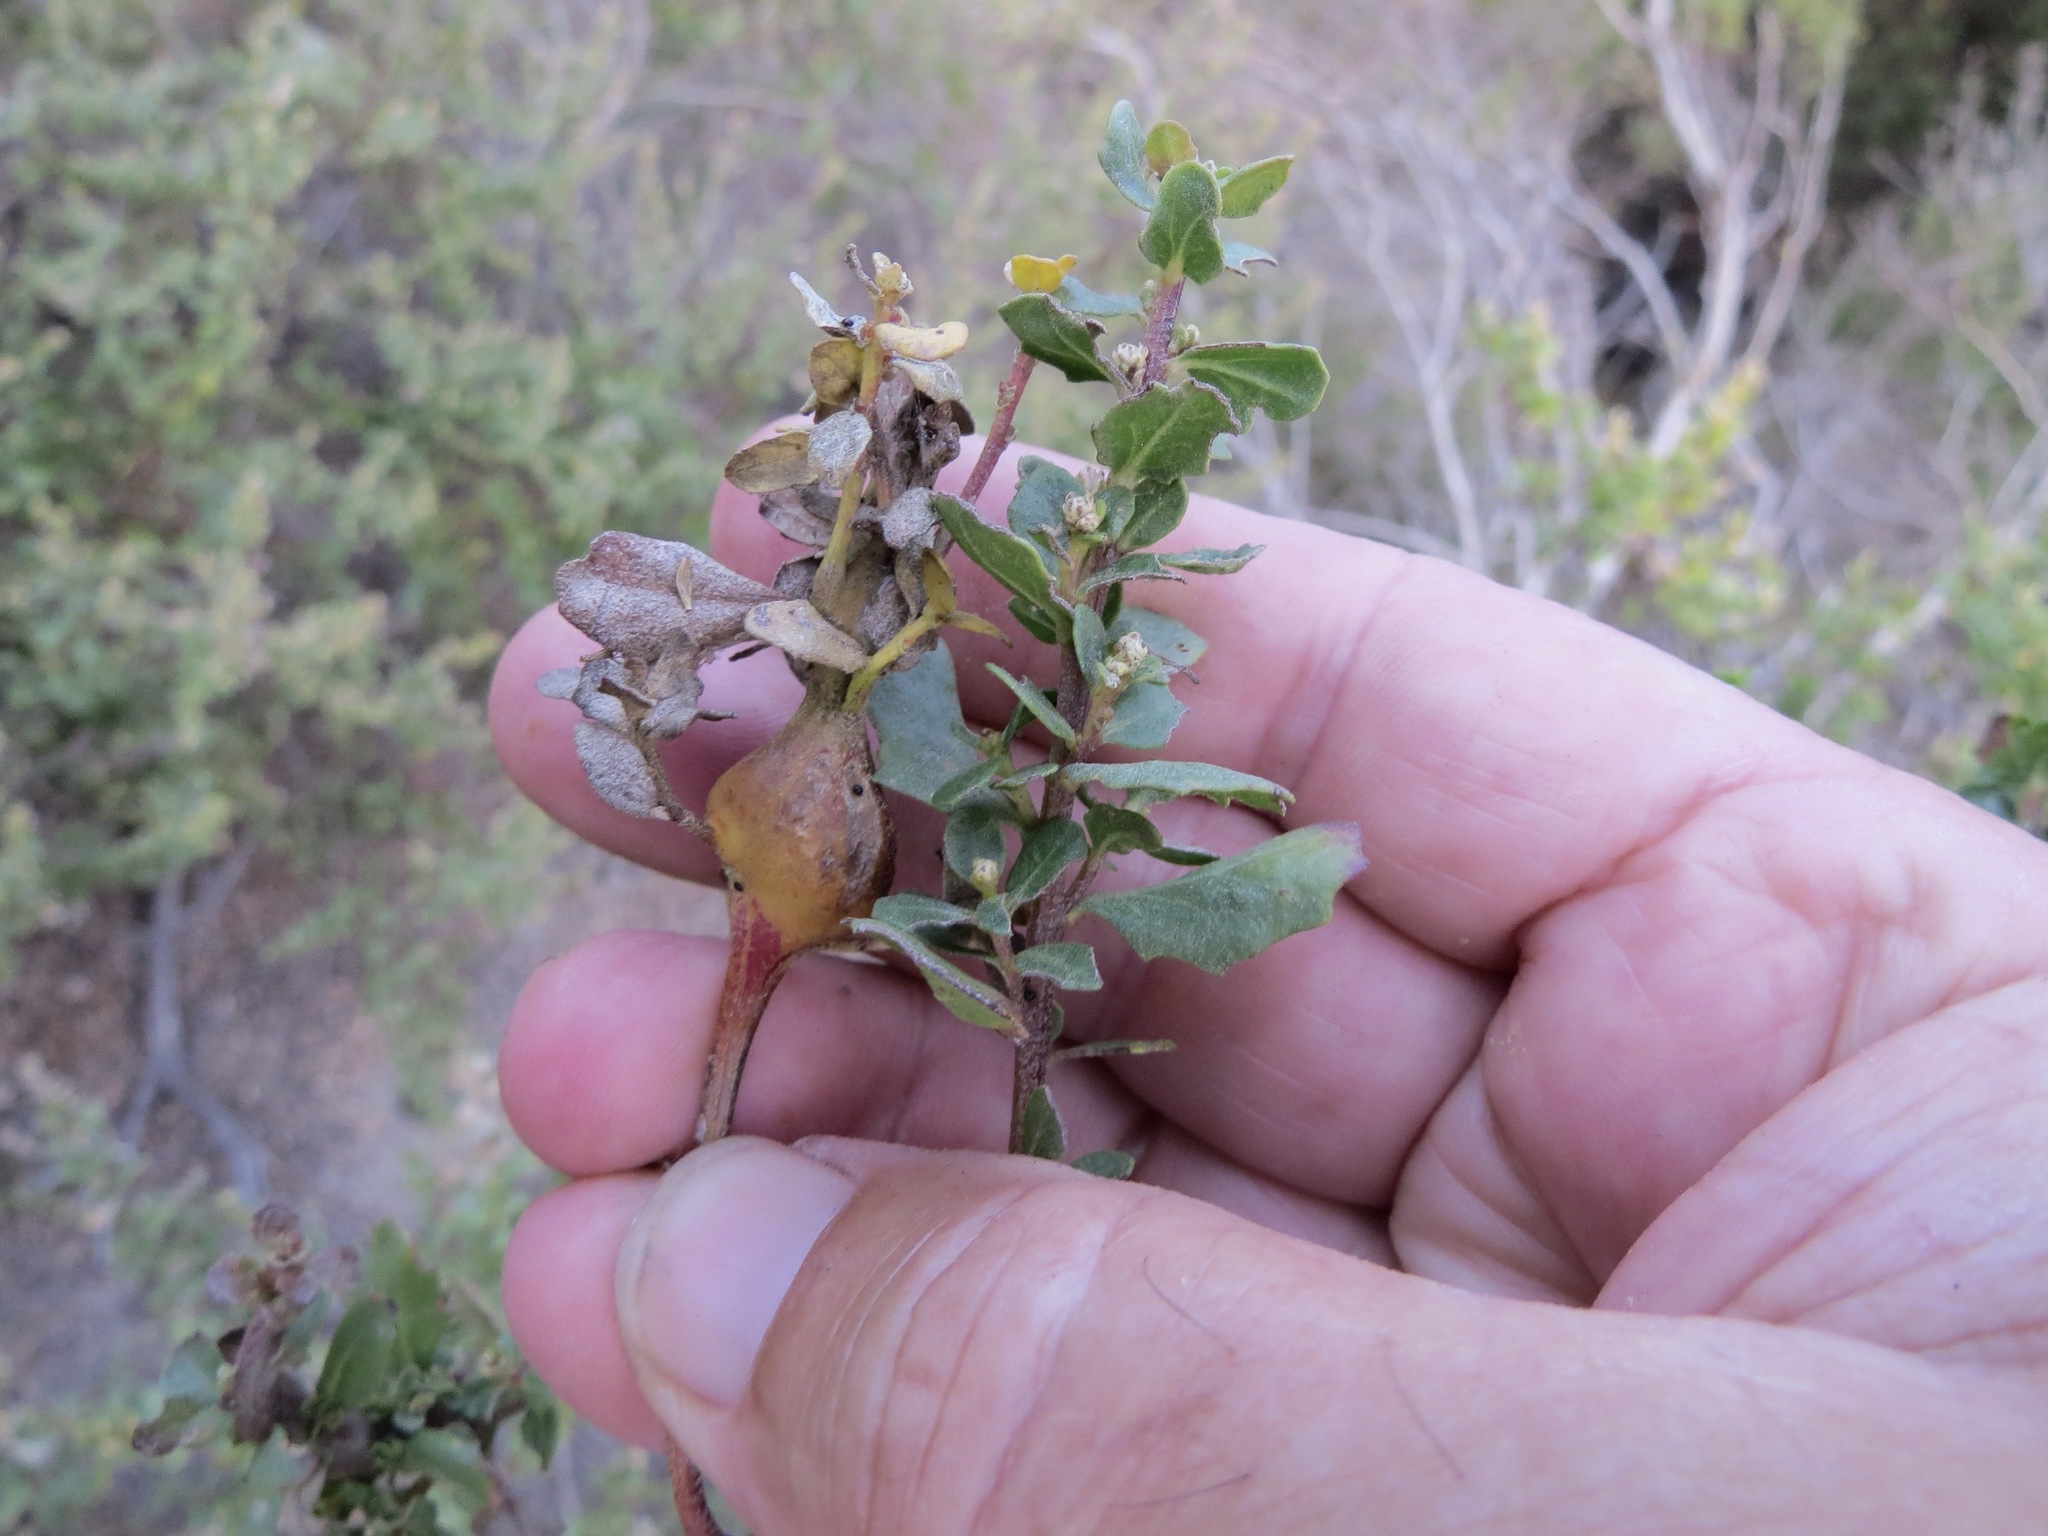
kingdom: Animalia
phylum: Arthropoda
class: Insecta
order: Lepidoptera
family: Gelechiidae
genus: Gnorimoschema
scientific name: Gnorimoschema baccharisella
